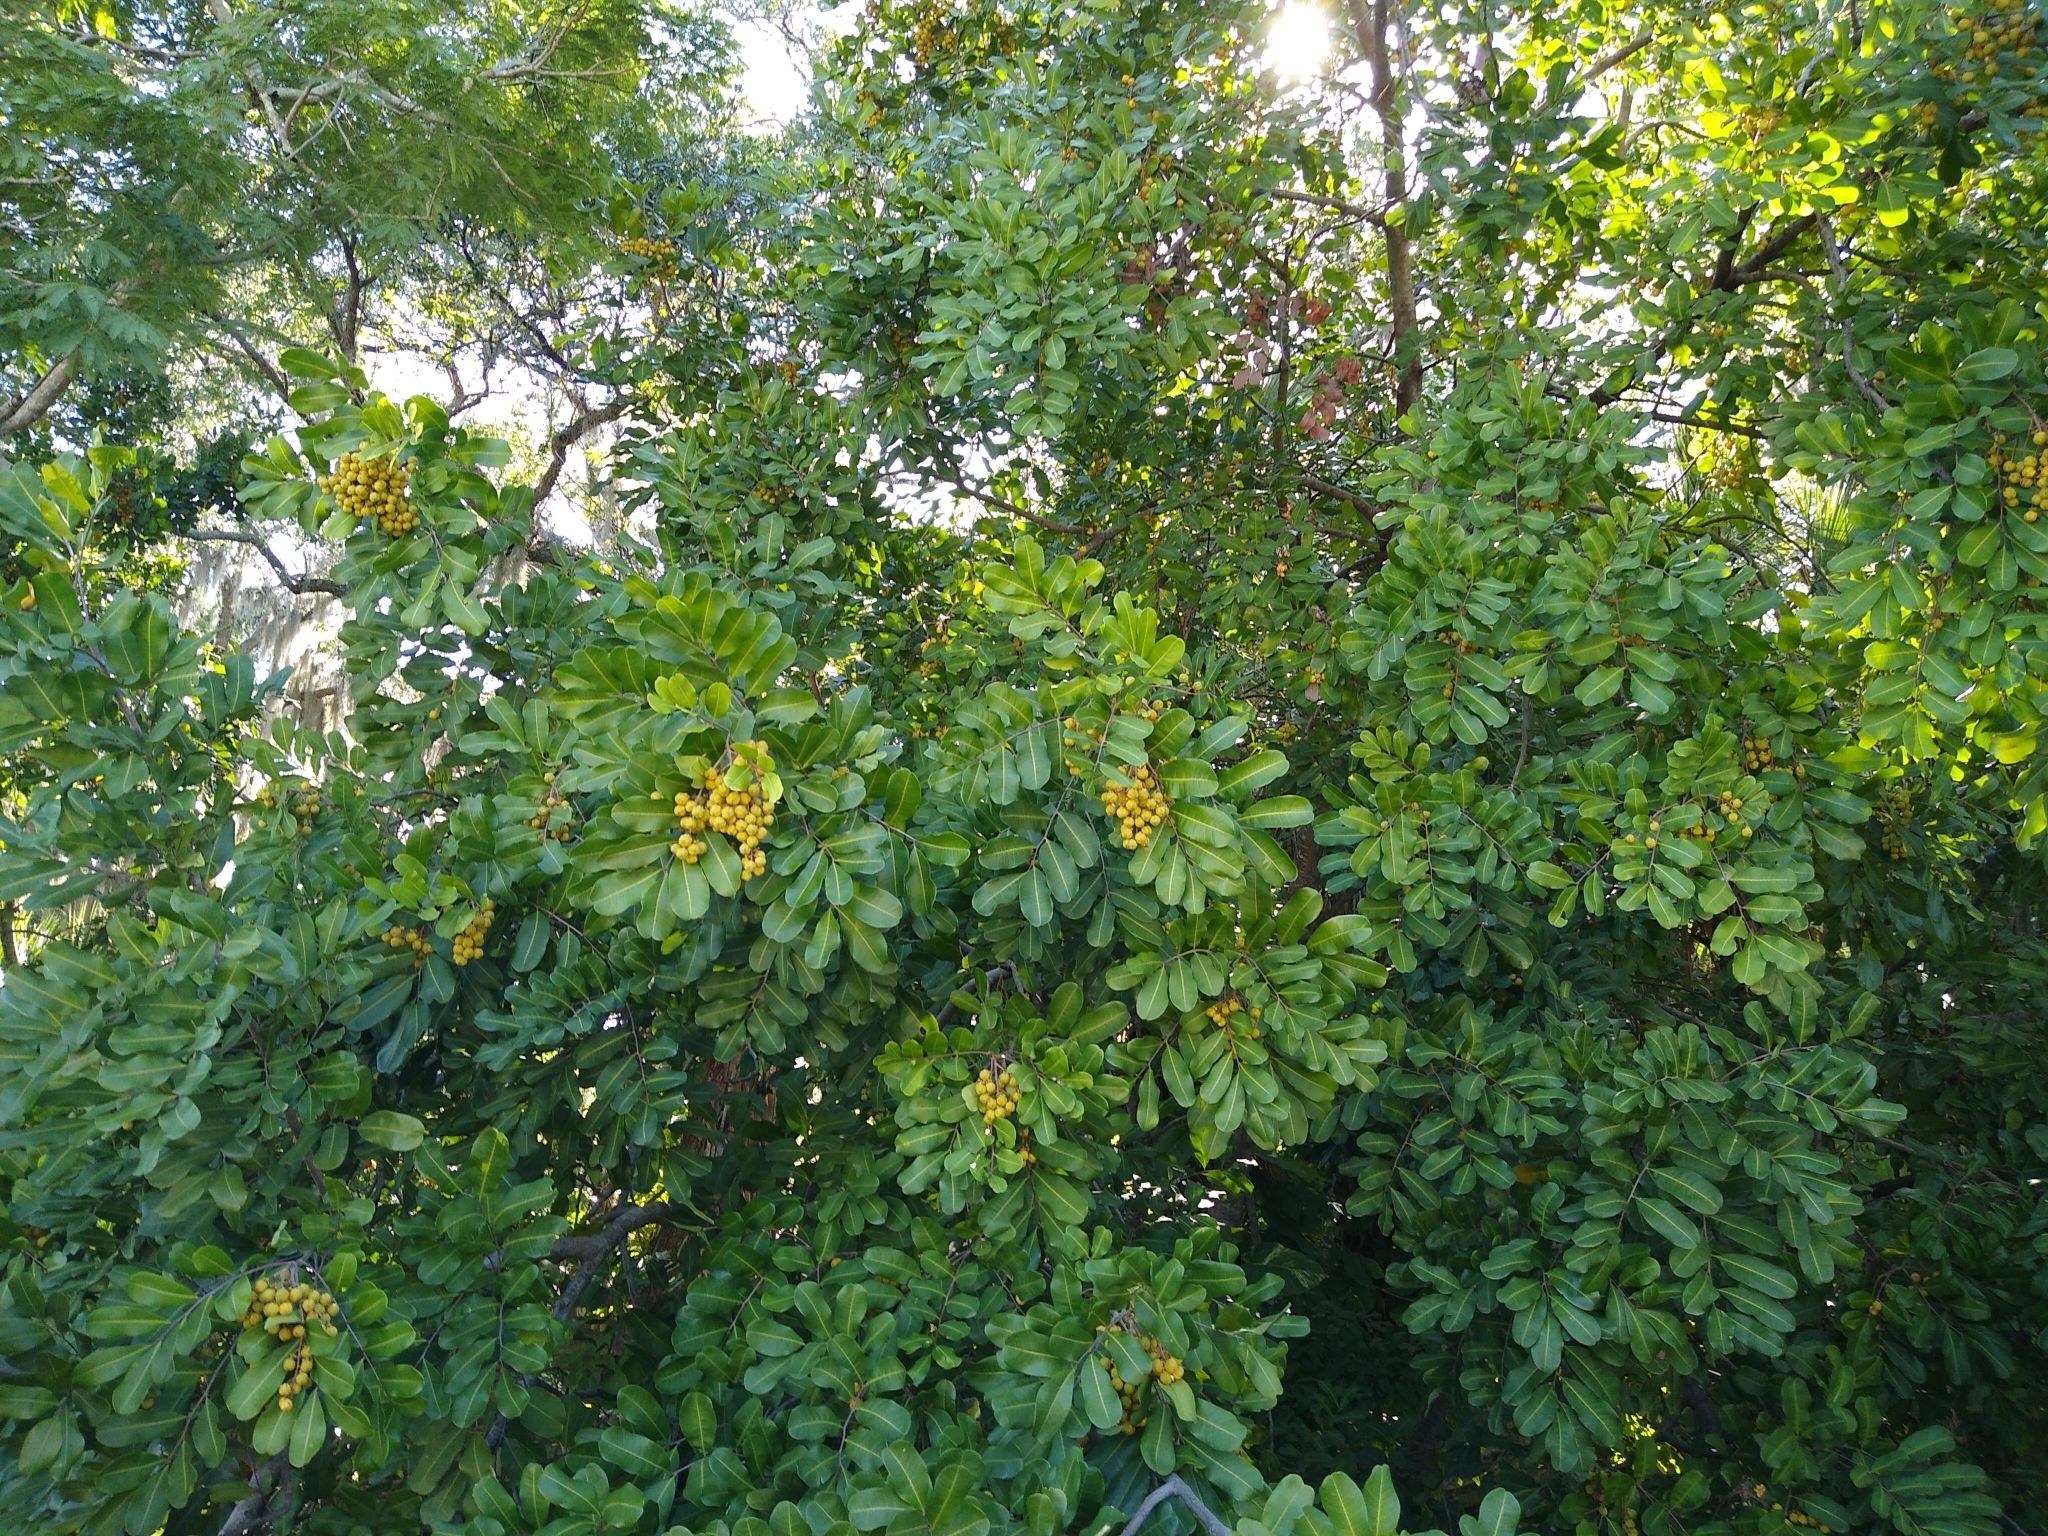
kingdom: Plantae
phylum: Tracheophyta
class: Magnoliopsida
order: Sapindales
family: Sapindaceae
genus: Cupaniopsis
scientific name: Cupaniopsis anacardioides
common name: Carrotwood
